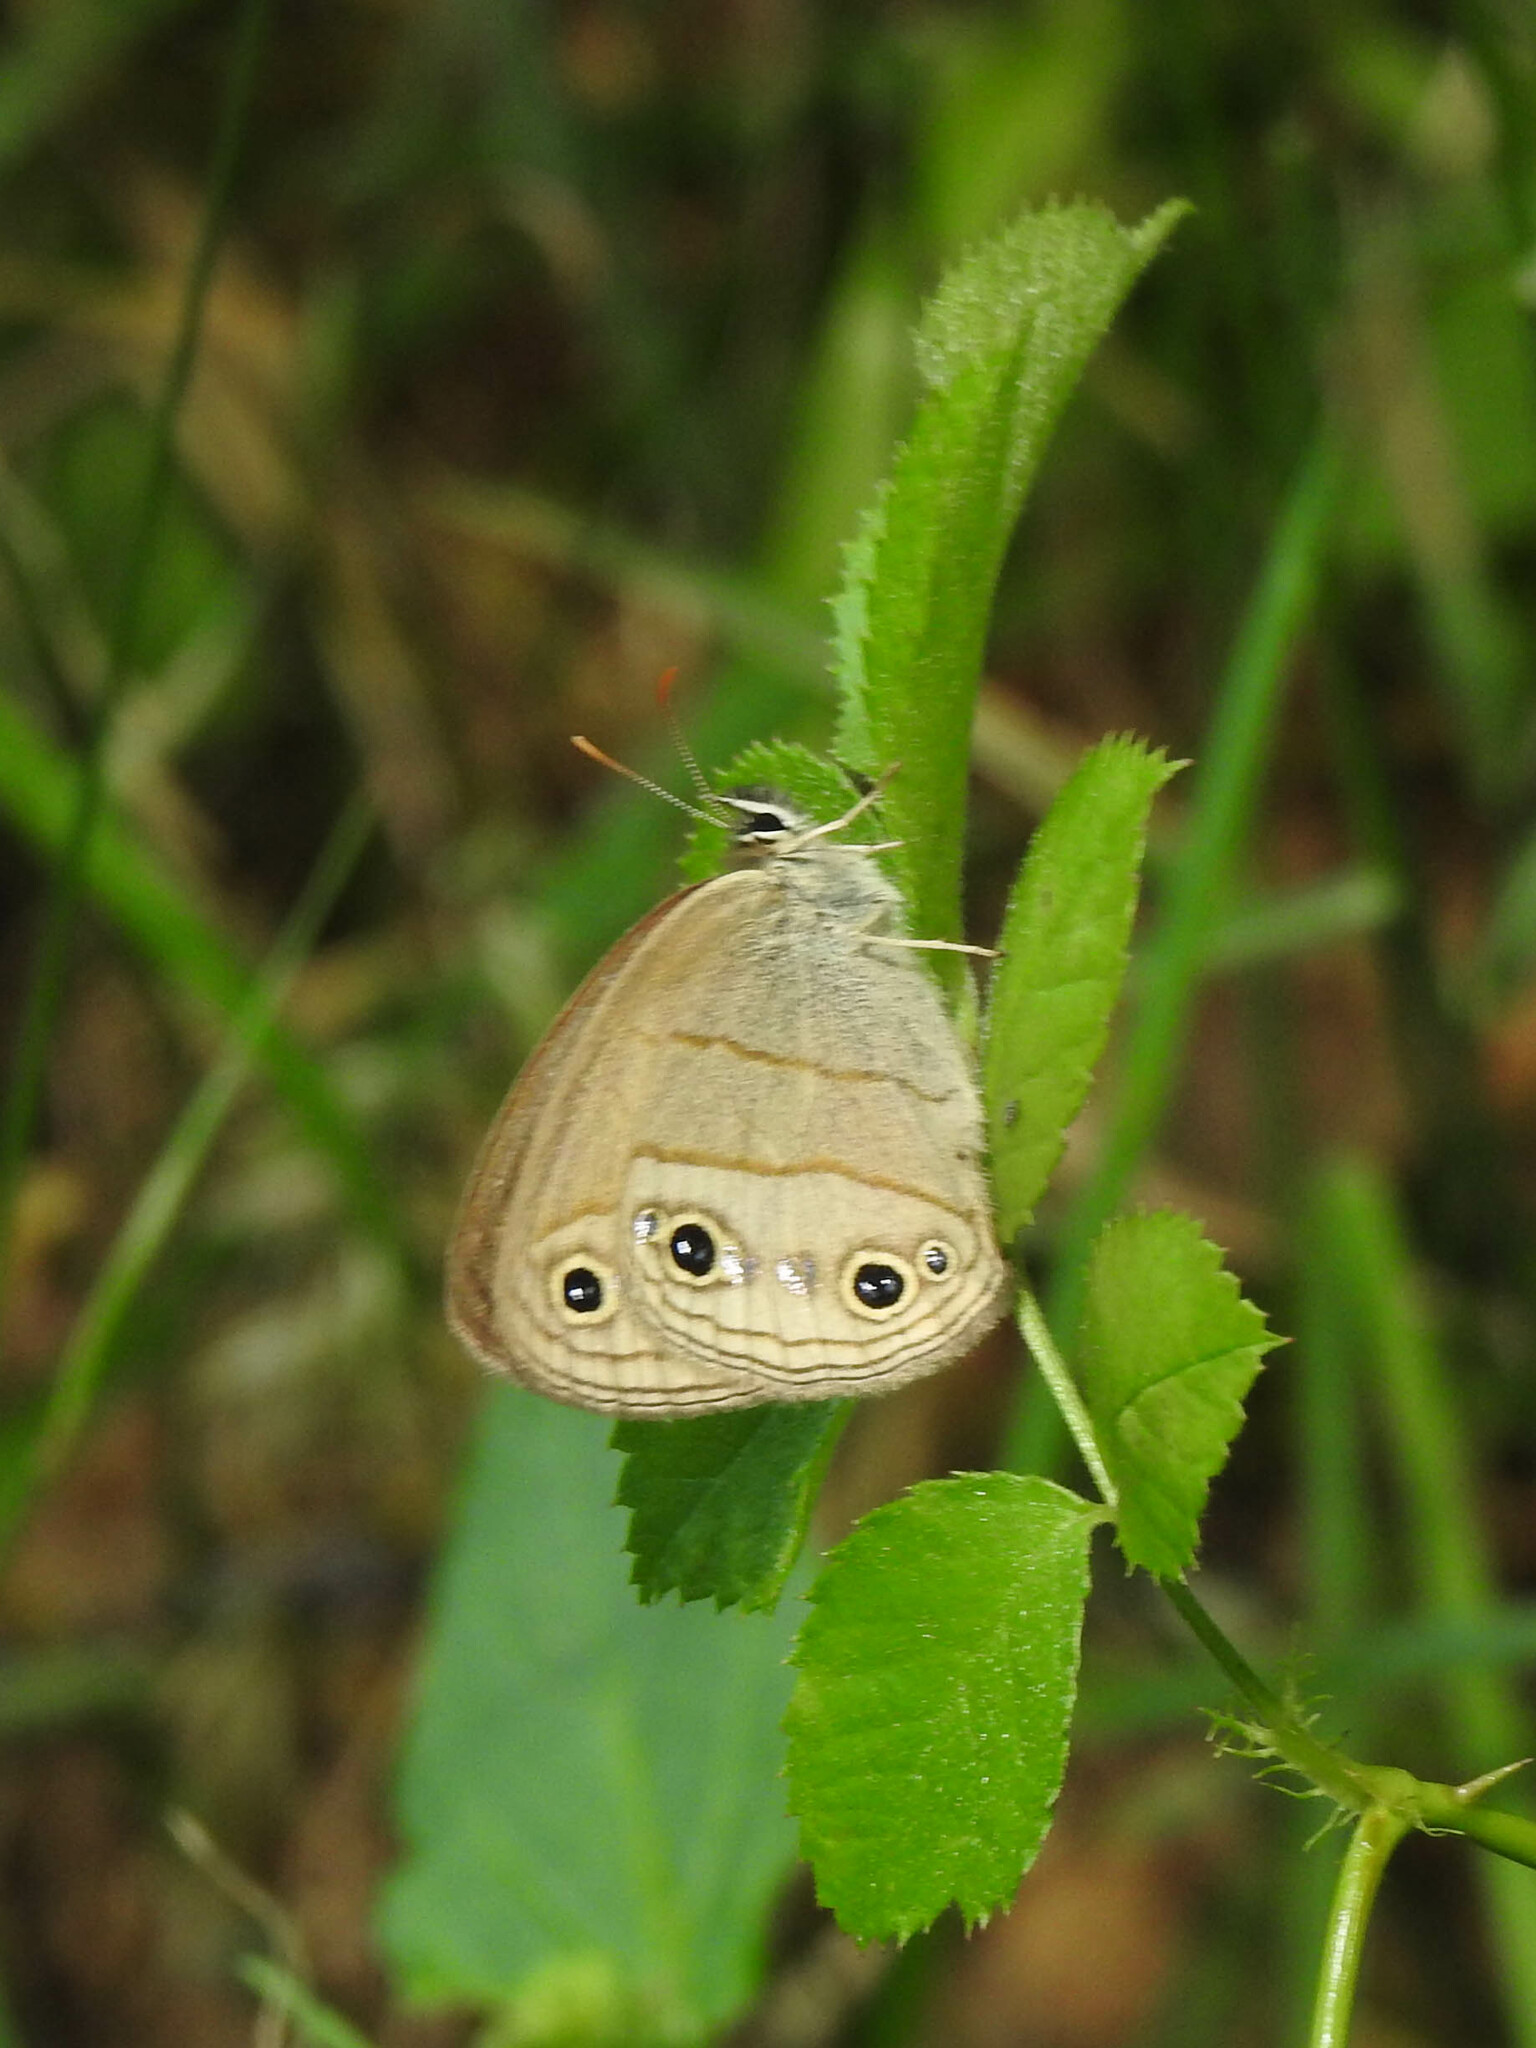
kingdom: Animalia
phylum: Arthropoda
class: Insecta
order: Lepidoptera
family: Nymphalidae
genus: Euptychia
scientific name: Euptychia cymela
